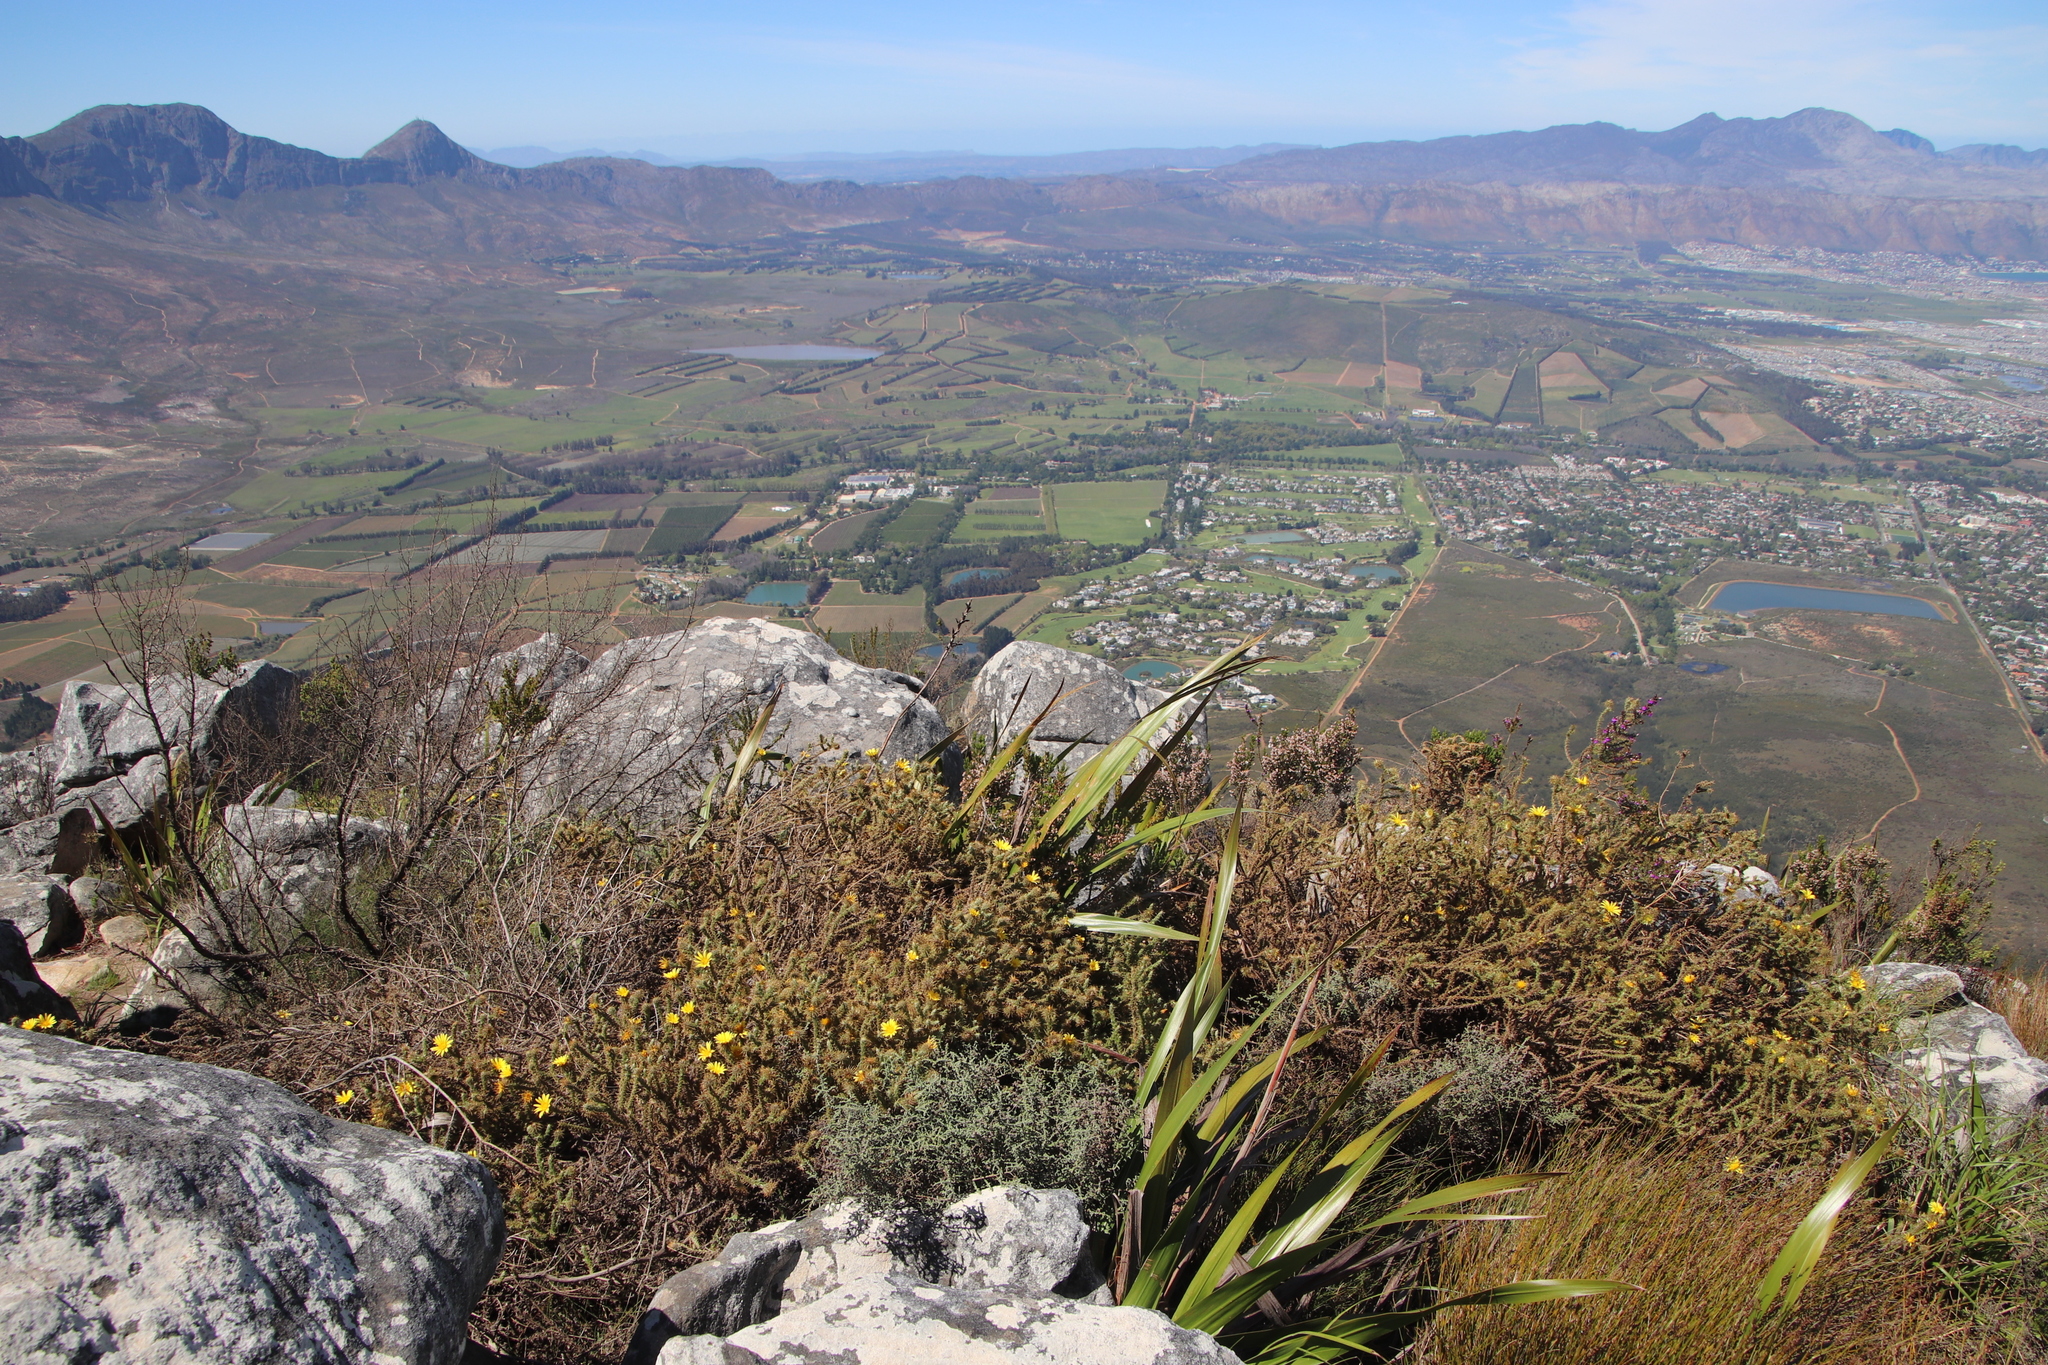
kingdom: Plantae
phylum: Tracheophyta
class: Magnoliopsida
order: Asterales
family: Asteraceae
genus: Cullumia
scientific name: Cullumia reticulata
